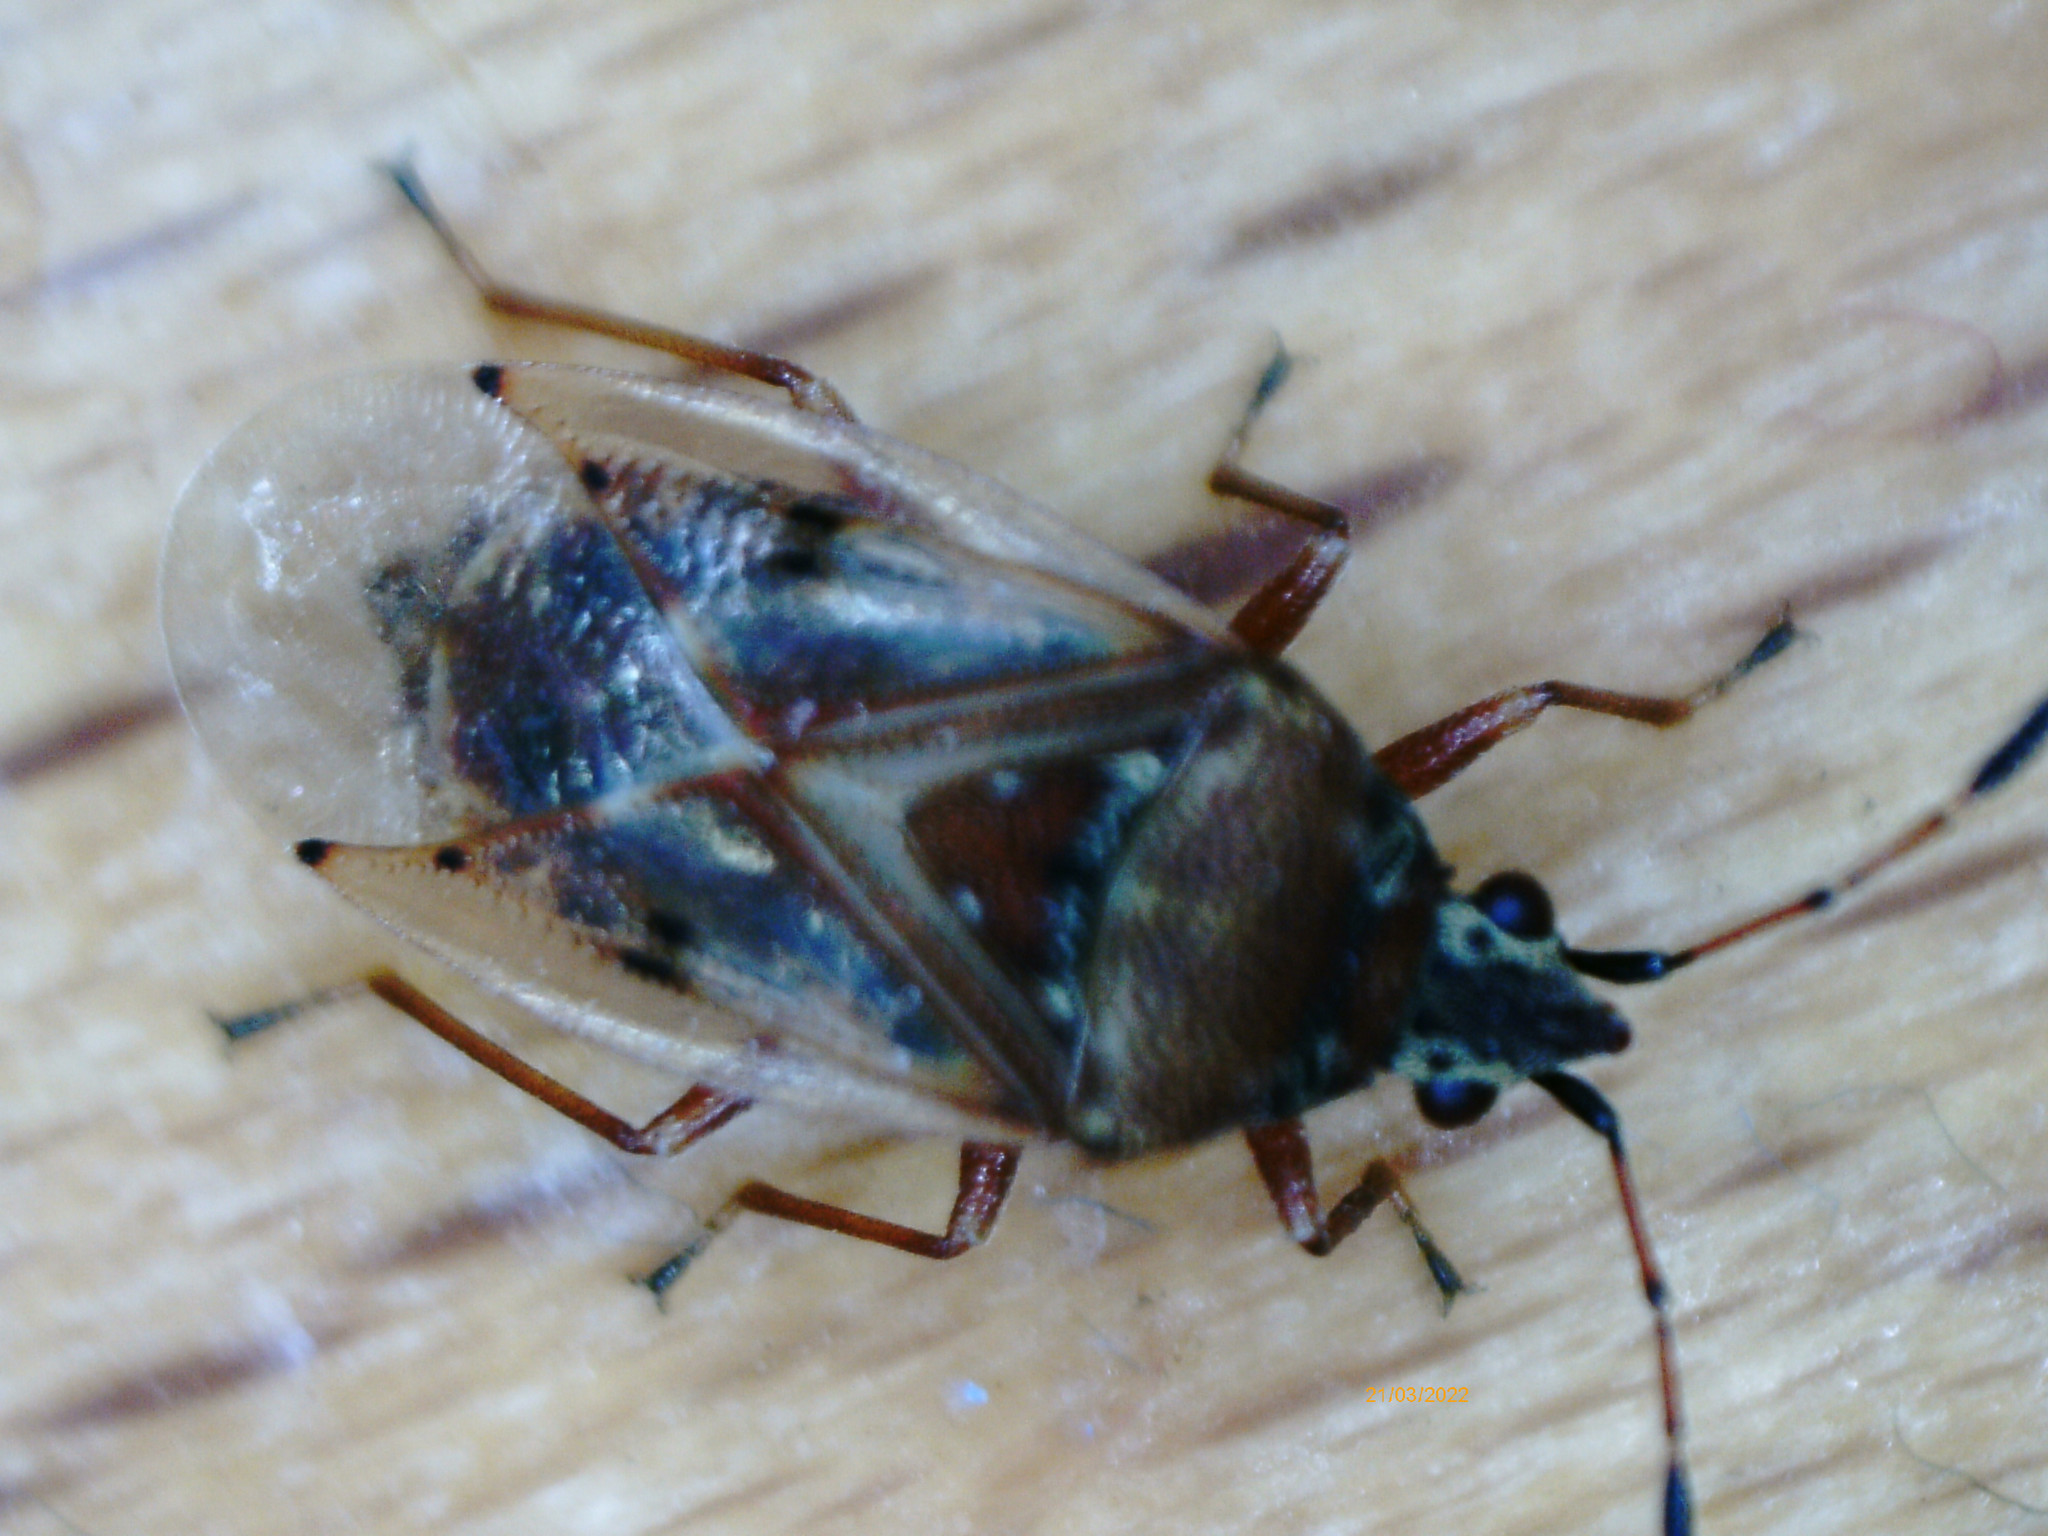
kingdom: Animalia
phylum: Arthropoda
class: Insecta
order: Hemiptera
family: Lygaeidae
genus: Kleidocerys
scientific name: Kleidocerys resedae
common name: Birch catkin bug
